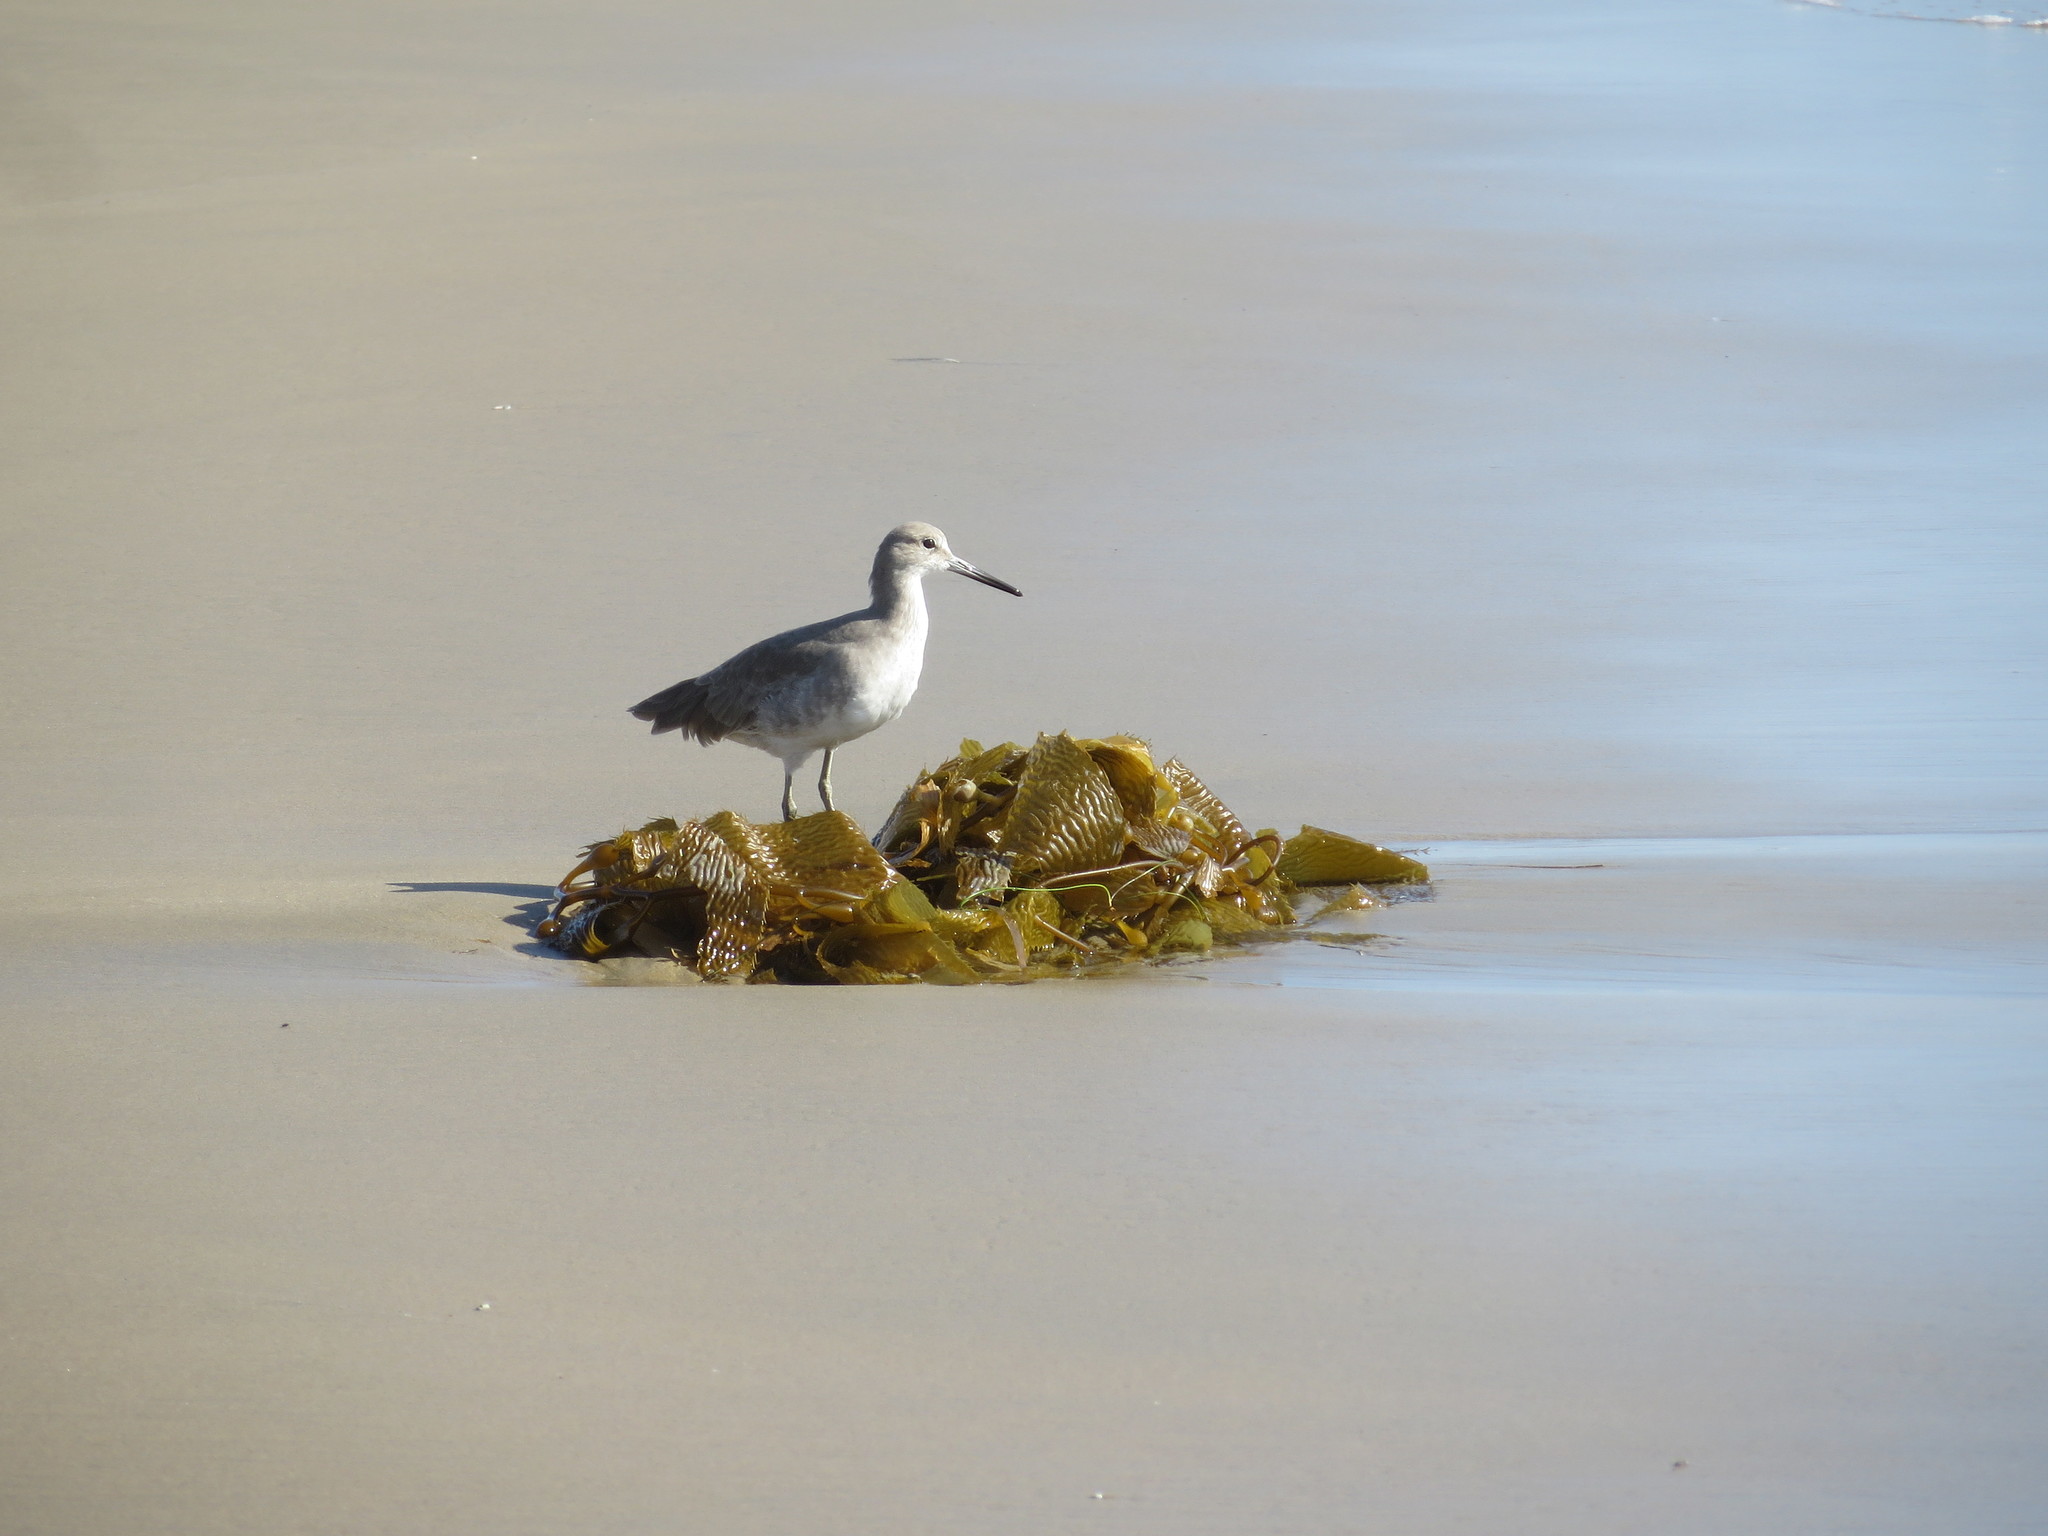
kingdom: Animalia
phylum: Chordata
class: Aves
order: Charadriiformes
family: Scolopacidae
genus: Tringa
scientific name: Tringa semipalmata
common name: Willet
